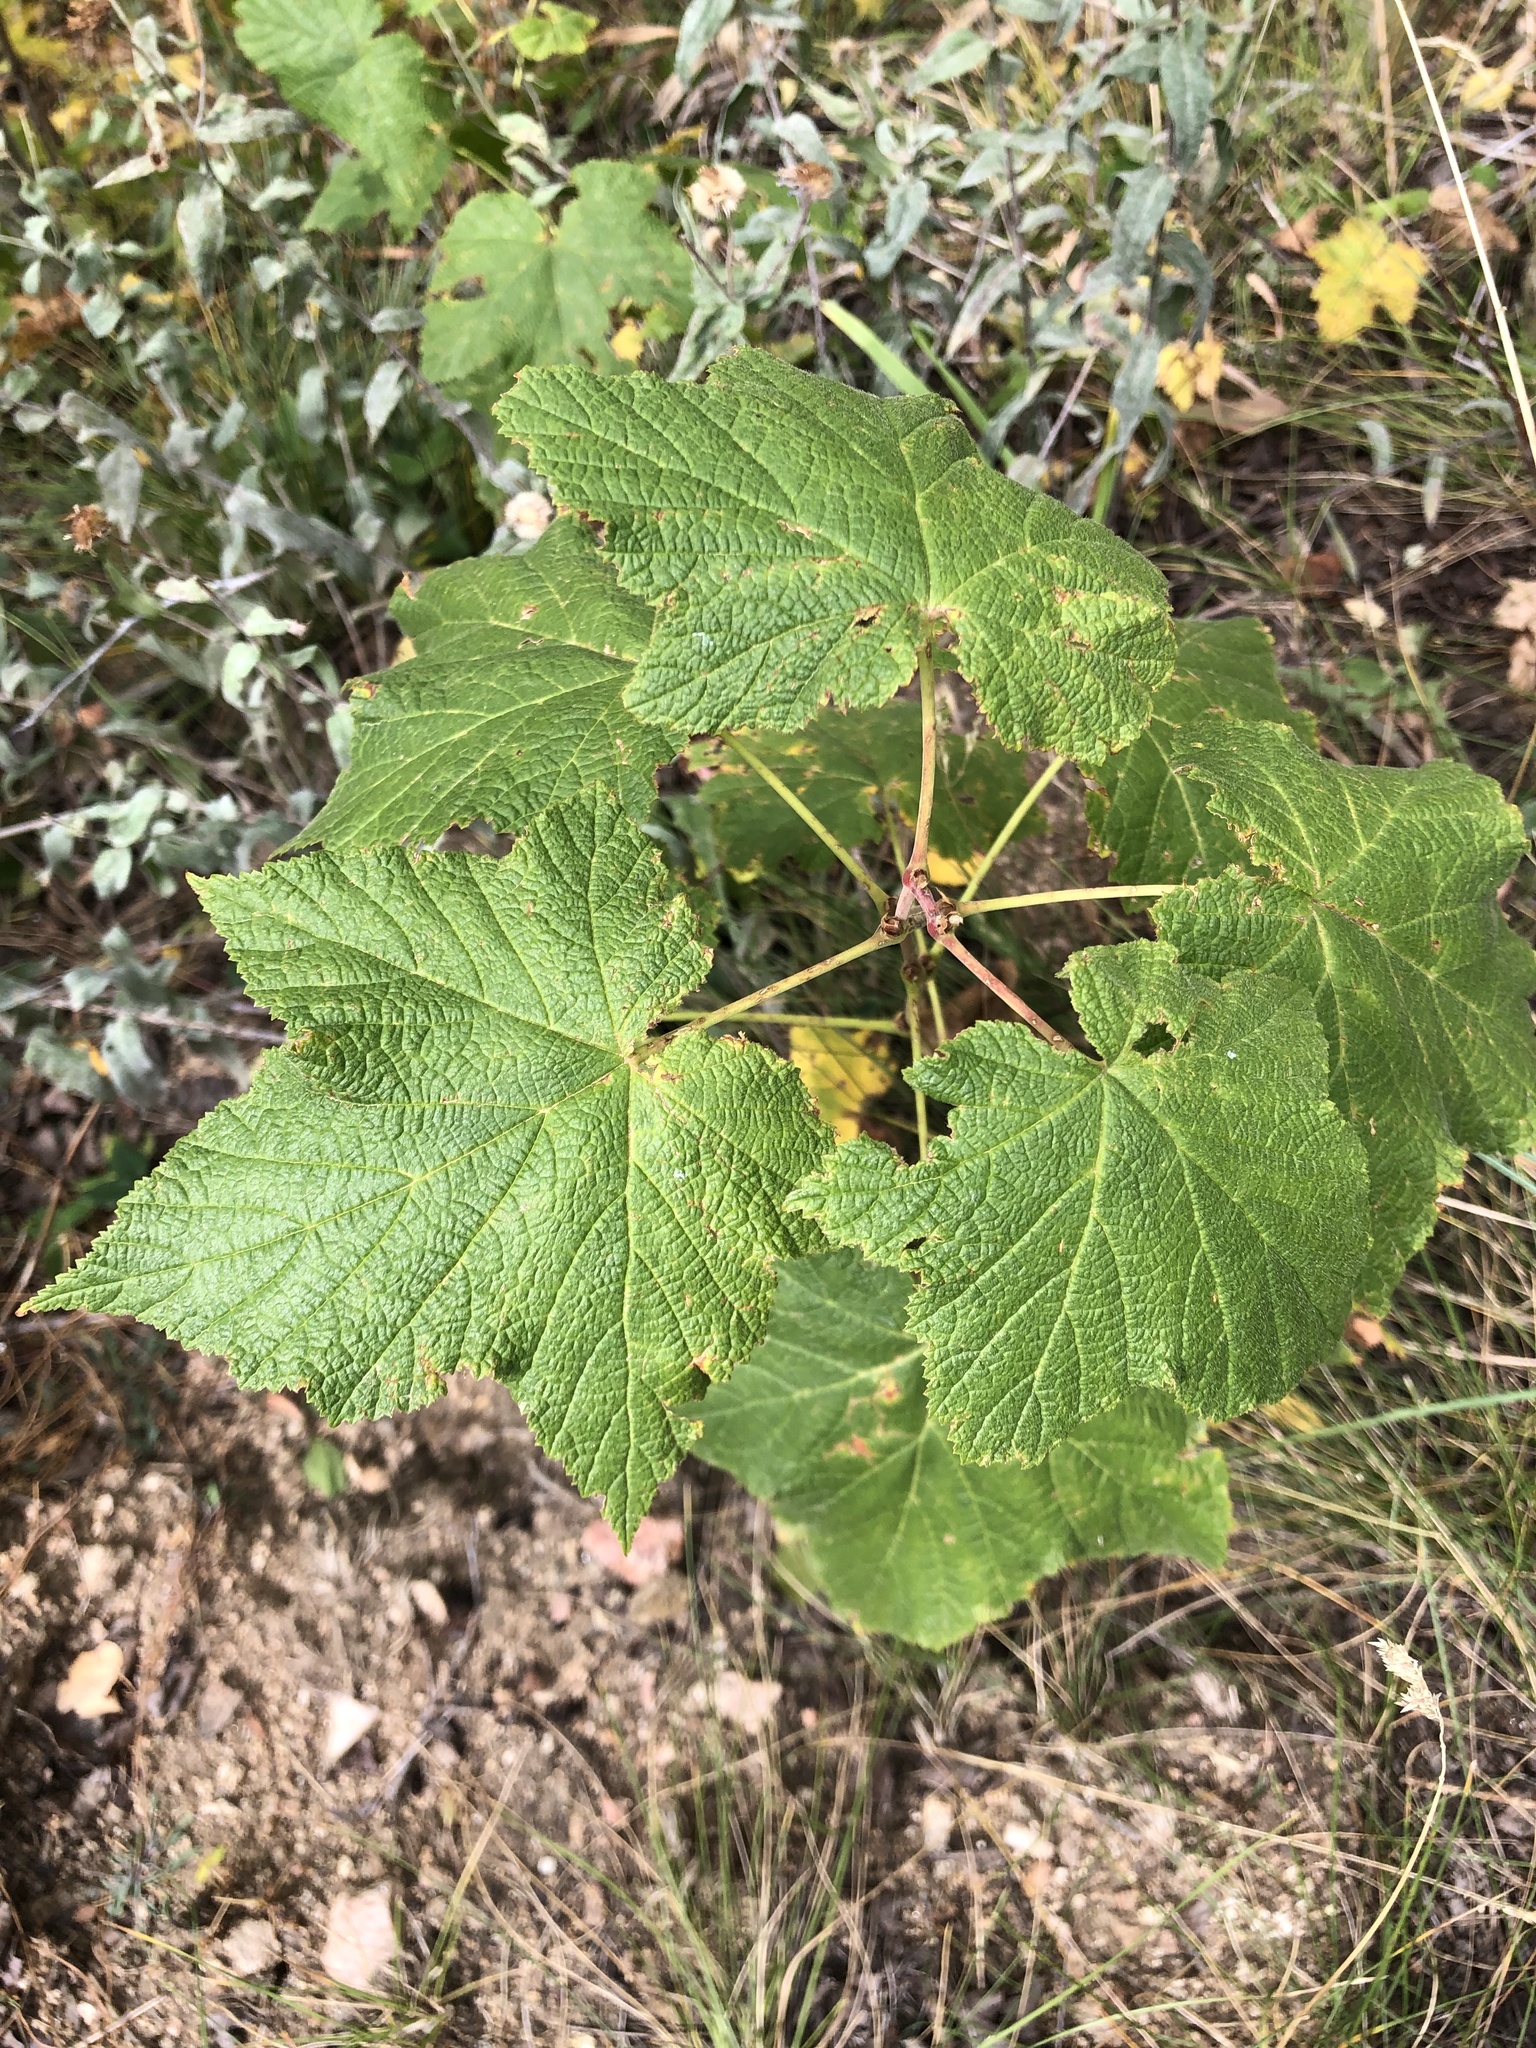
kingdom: Plantae
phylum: Tracheophyta
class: Magnoliopsida
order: Rosales
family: Rosaceae
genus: Rubus
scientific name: Rubus parviflorus
